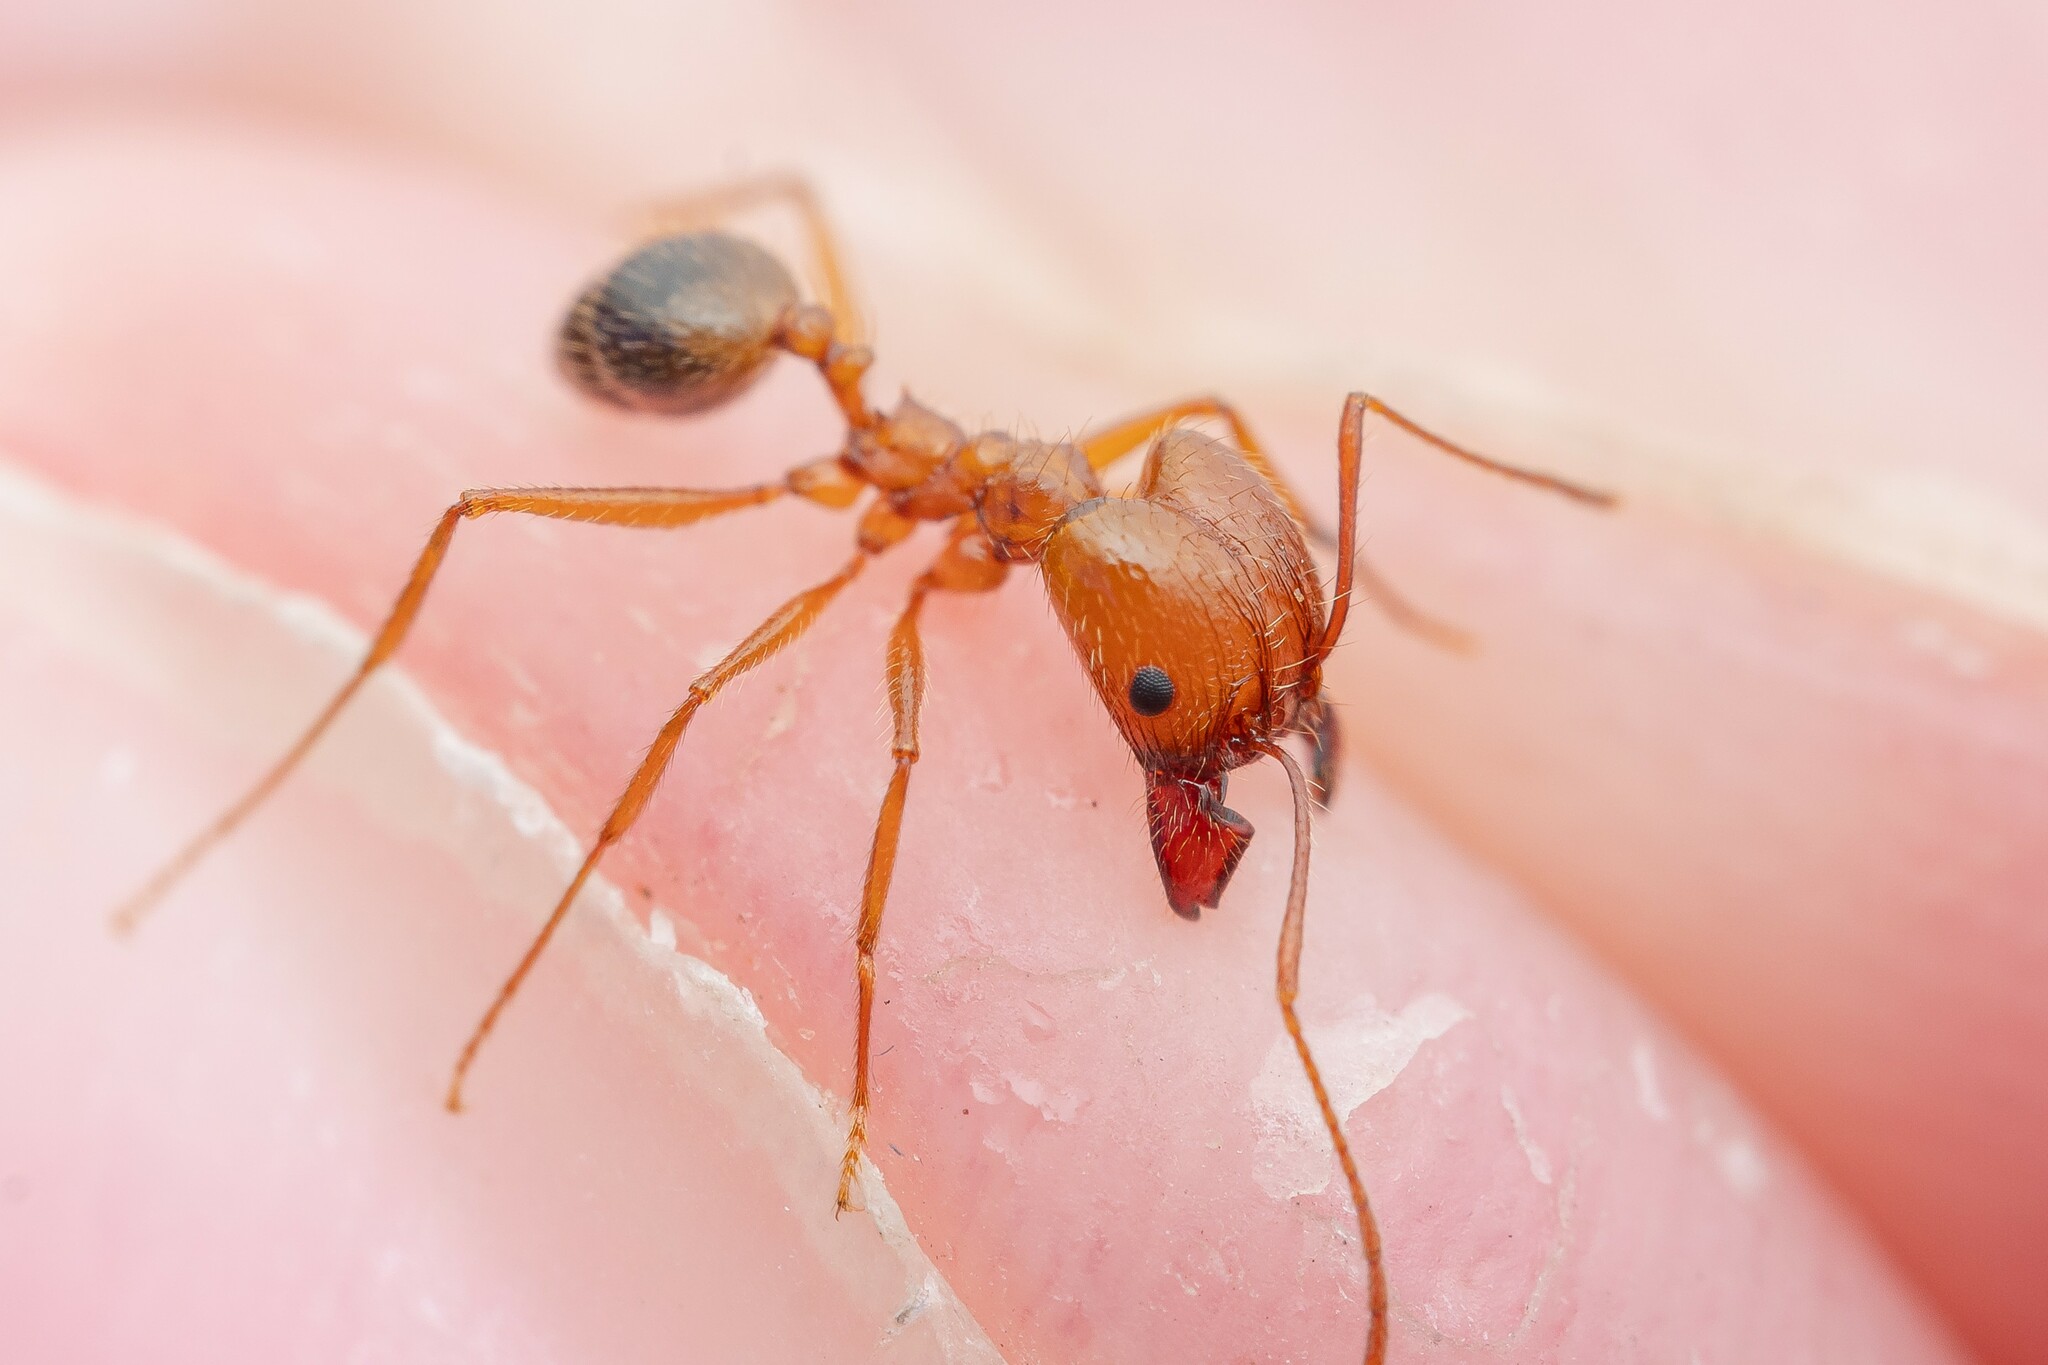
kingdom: Animalia
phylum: Arthropoda
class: Insecta
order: Hymenoptera
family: Formicidae
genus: Pheidole
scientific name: Pheidole desertorum
